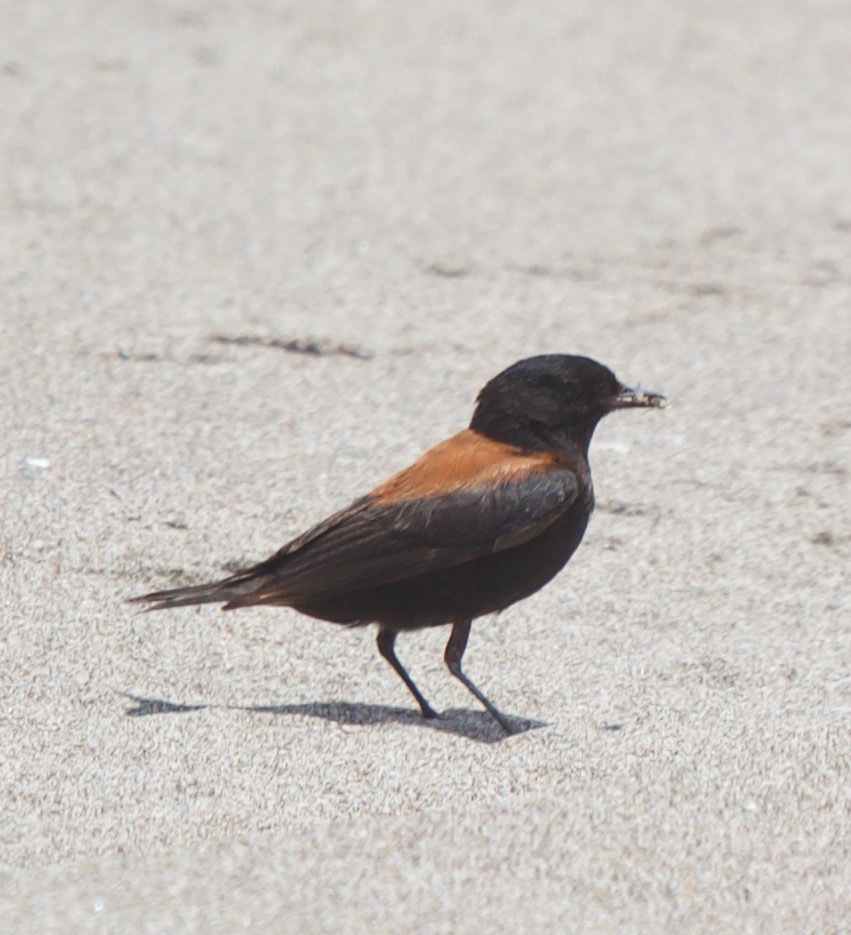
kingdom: Animalia
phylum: Chordata
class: Aves
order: Passeriformes
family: Tyrannidae
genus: Lessonia
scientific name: Lessonia rufa
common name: Austral negrito
